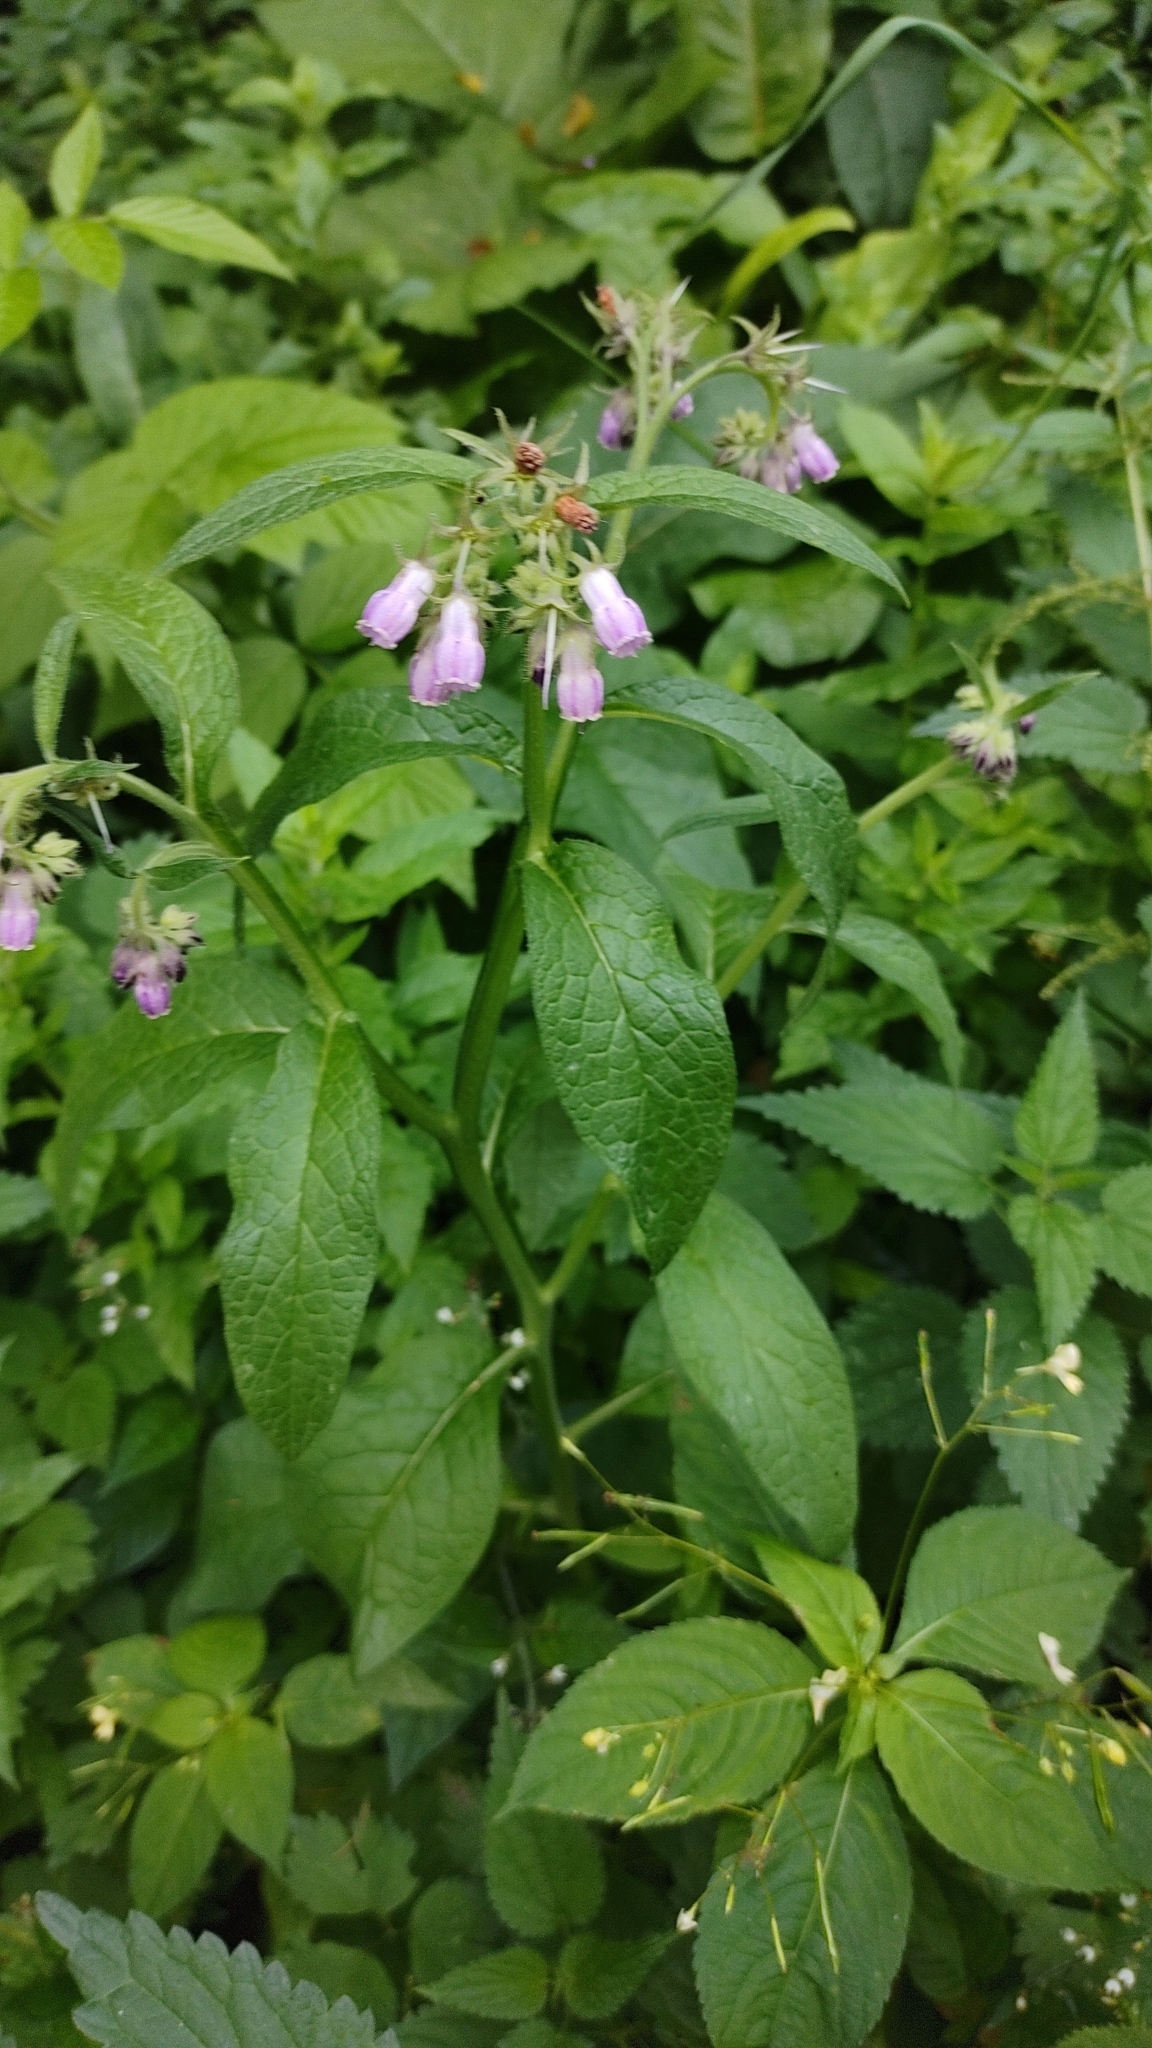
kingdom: Plantae
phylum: Tracheophyta
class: Magnoliopsida
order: Boraginales
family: Boraginaceae
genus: Symphytum
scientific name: Symphytum officinale
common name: Common comfrey
